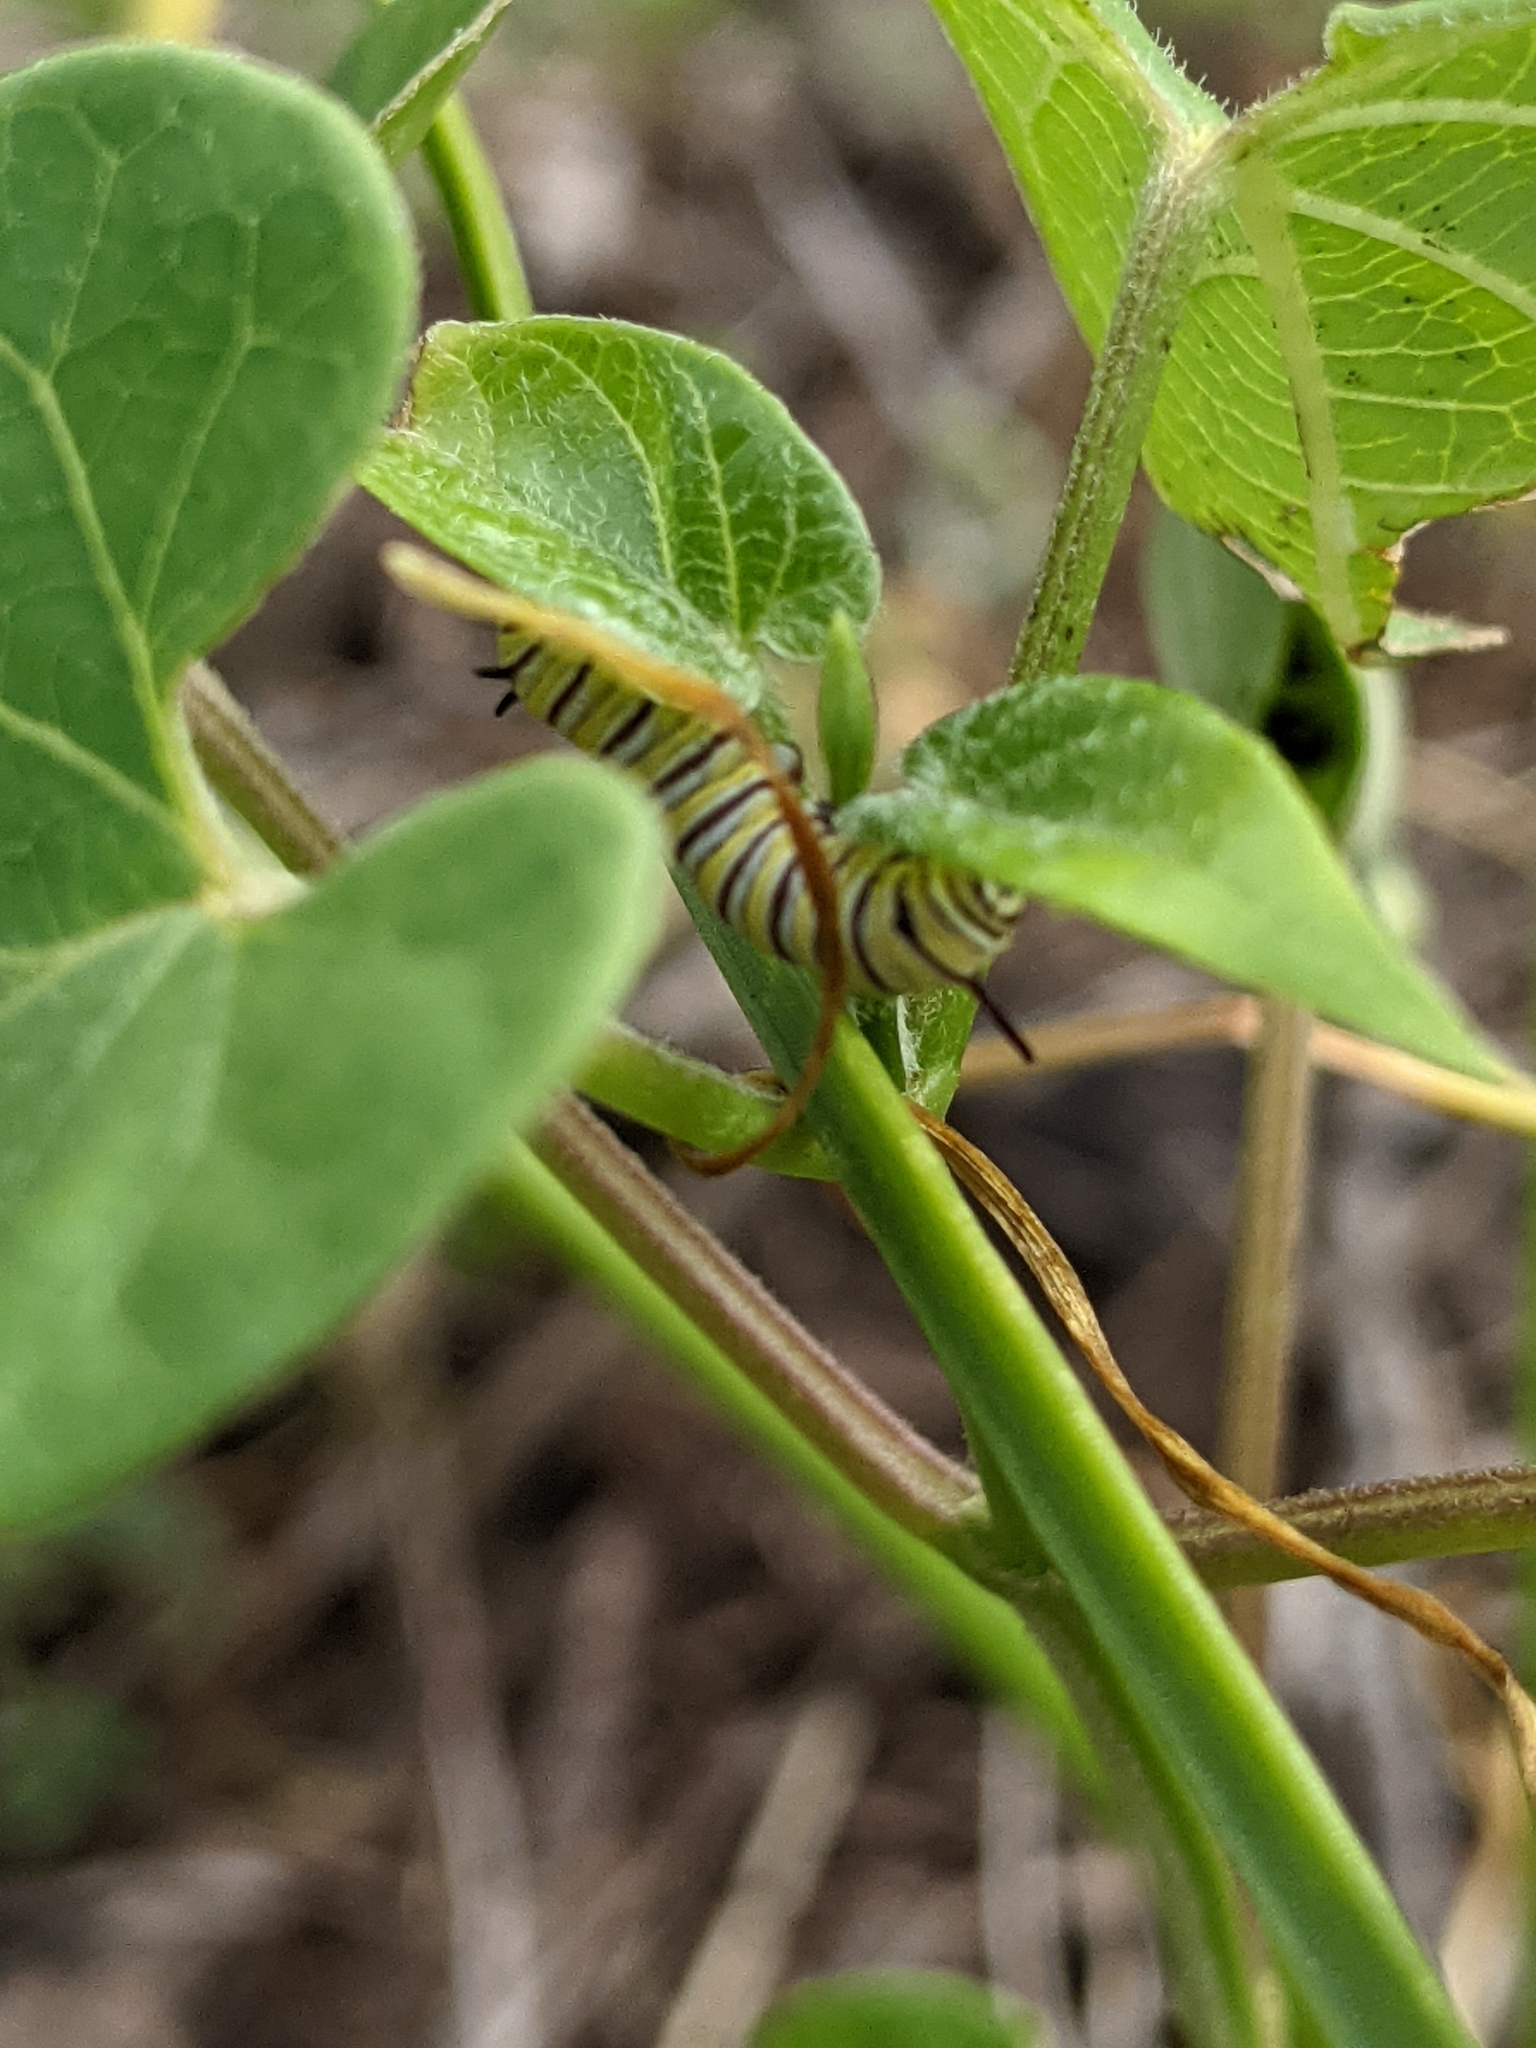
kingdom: Animalia
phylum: Arthropoda
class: Insecta
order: Lepidoptera
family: Nymphalidae
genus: Danaus
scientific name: Danaus plexippus
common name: Monarch
